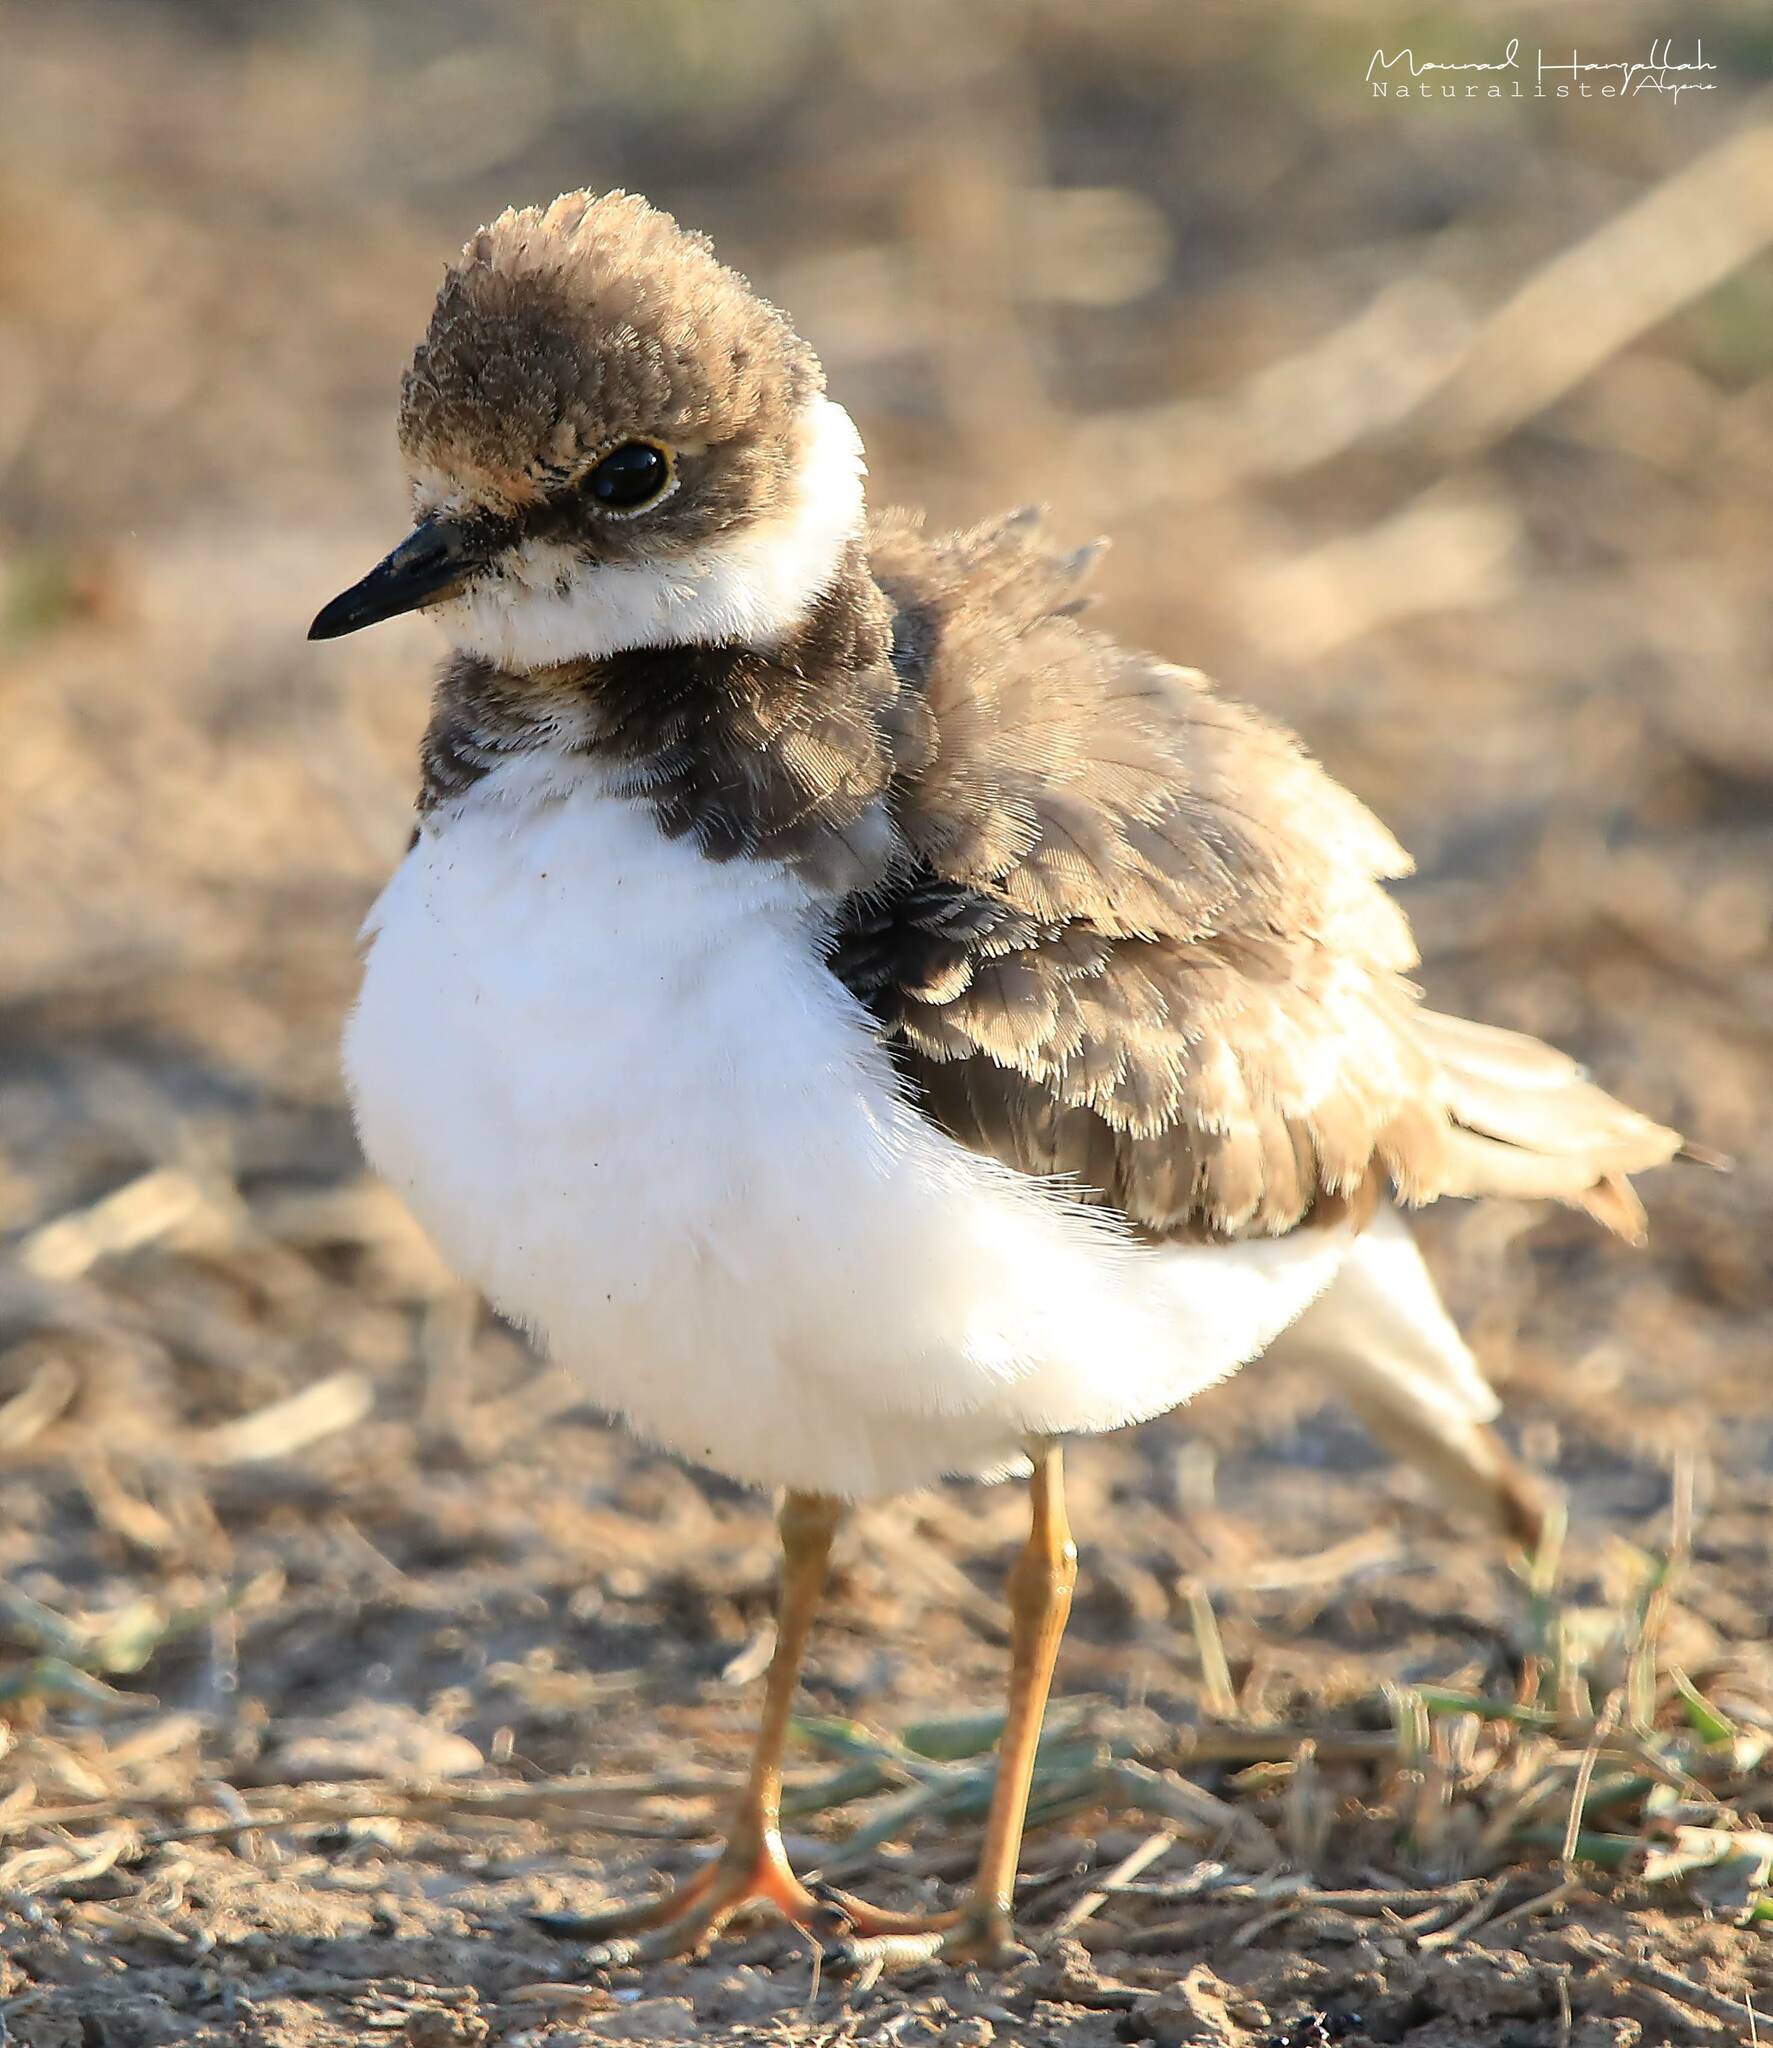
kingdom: Animalia
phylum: Chordata
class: Aves
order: Charadriiformes
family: Charadriidae
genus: Charadrius
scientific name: Charadrius dubius
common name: Little ringed plover
